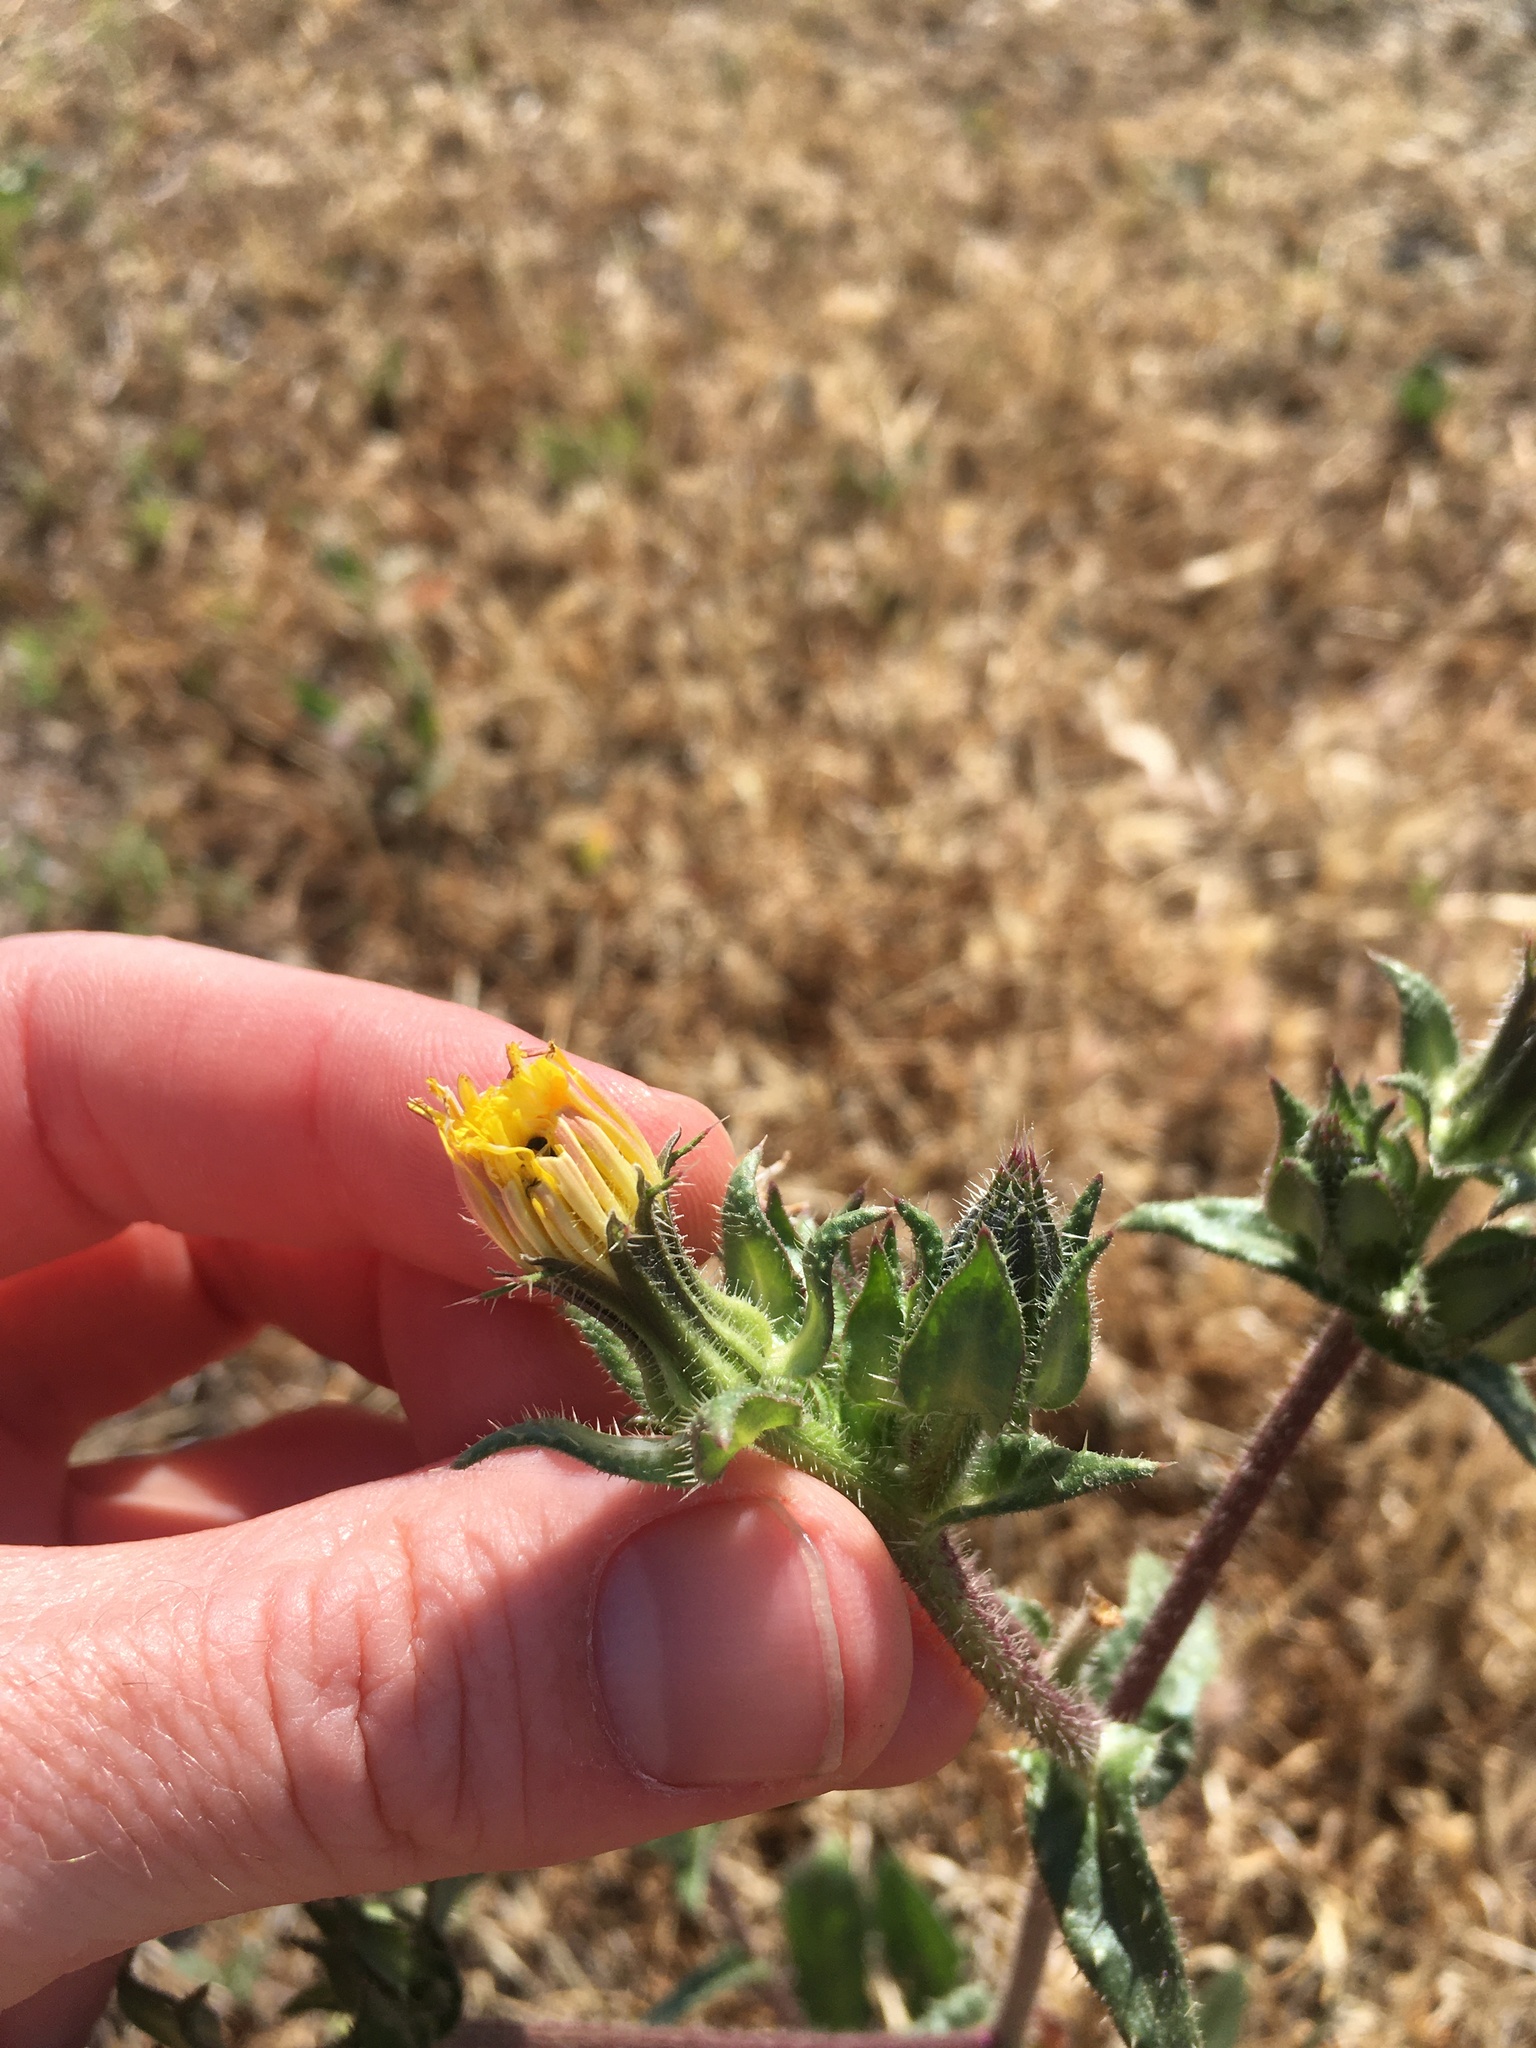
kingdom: Plantae
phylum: Tracheophyta
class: Magnoliopsida
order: Asterales
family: Asteraceae
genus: Helminthotheca
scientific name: Helminthotheca echioides
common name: Ox-tongue
